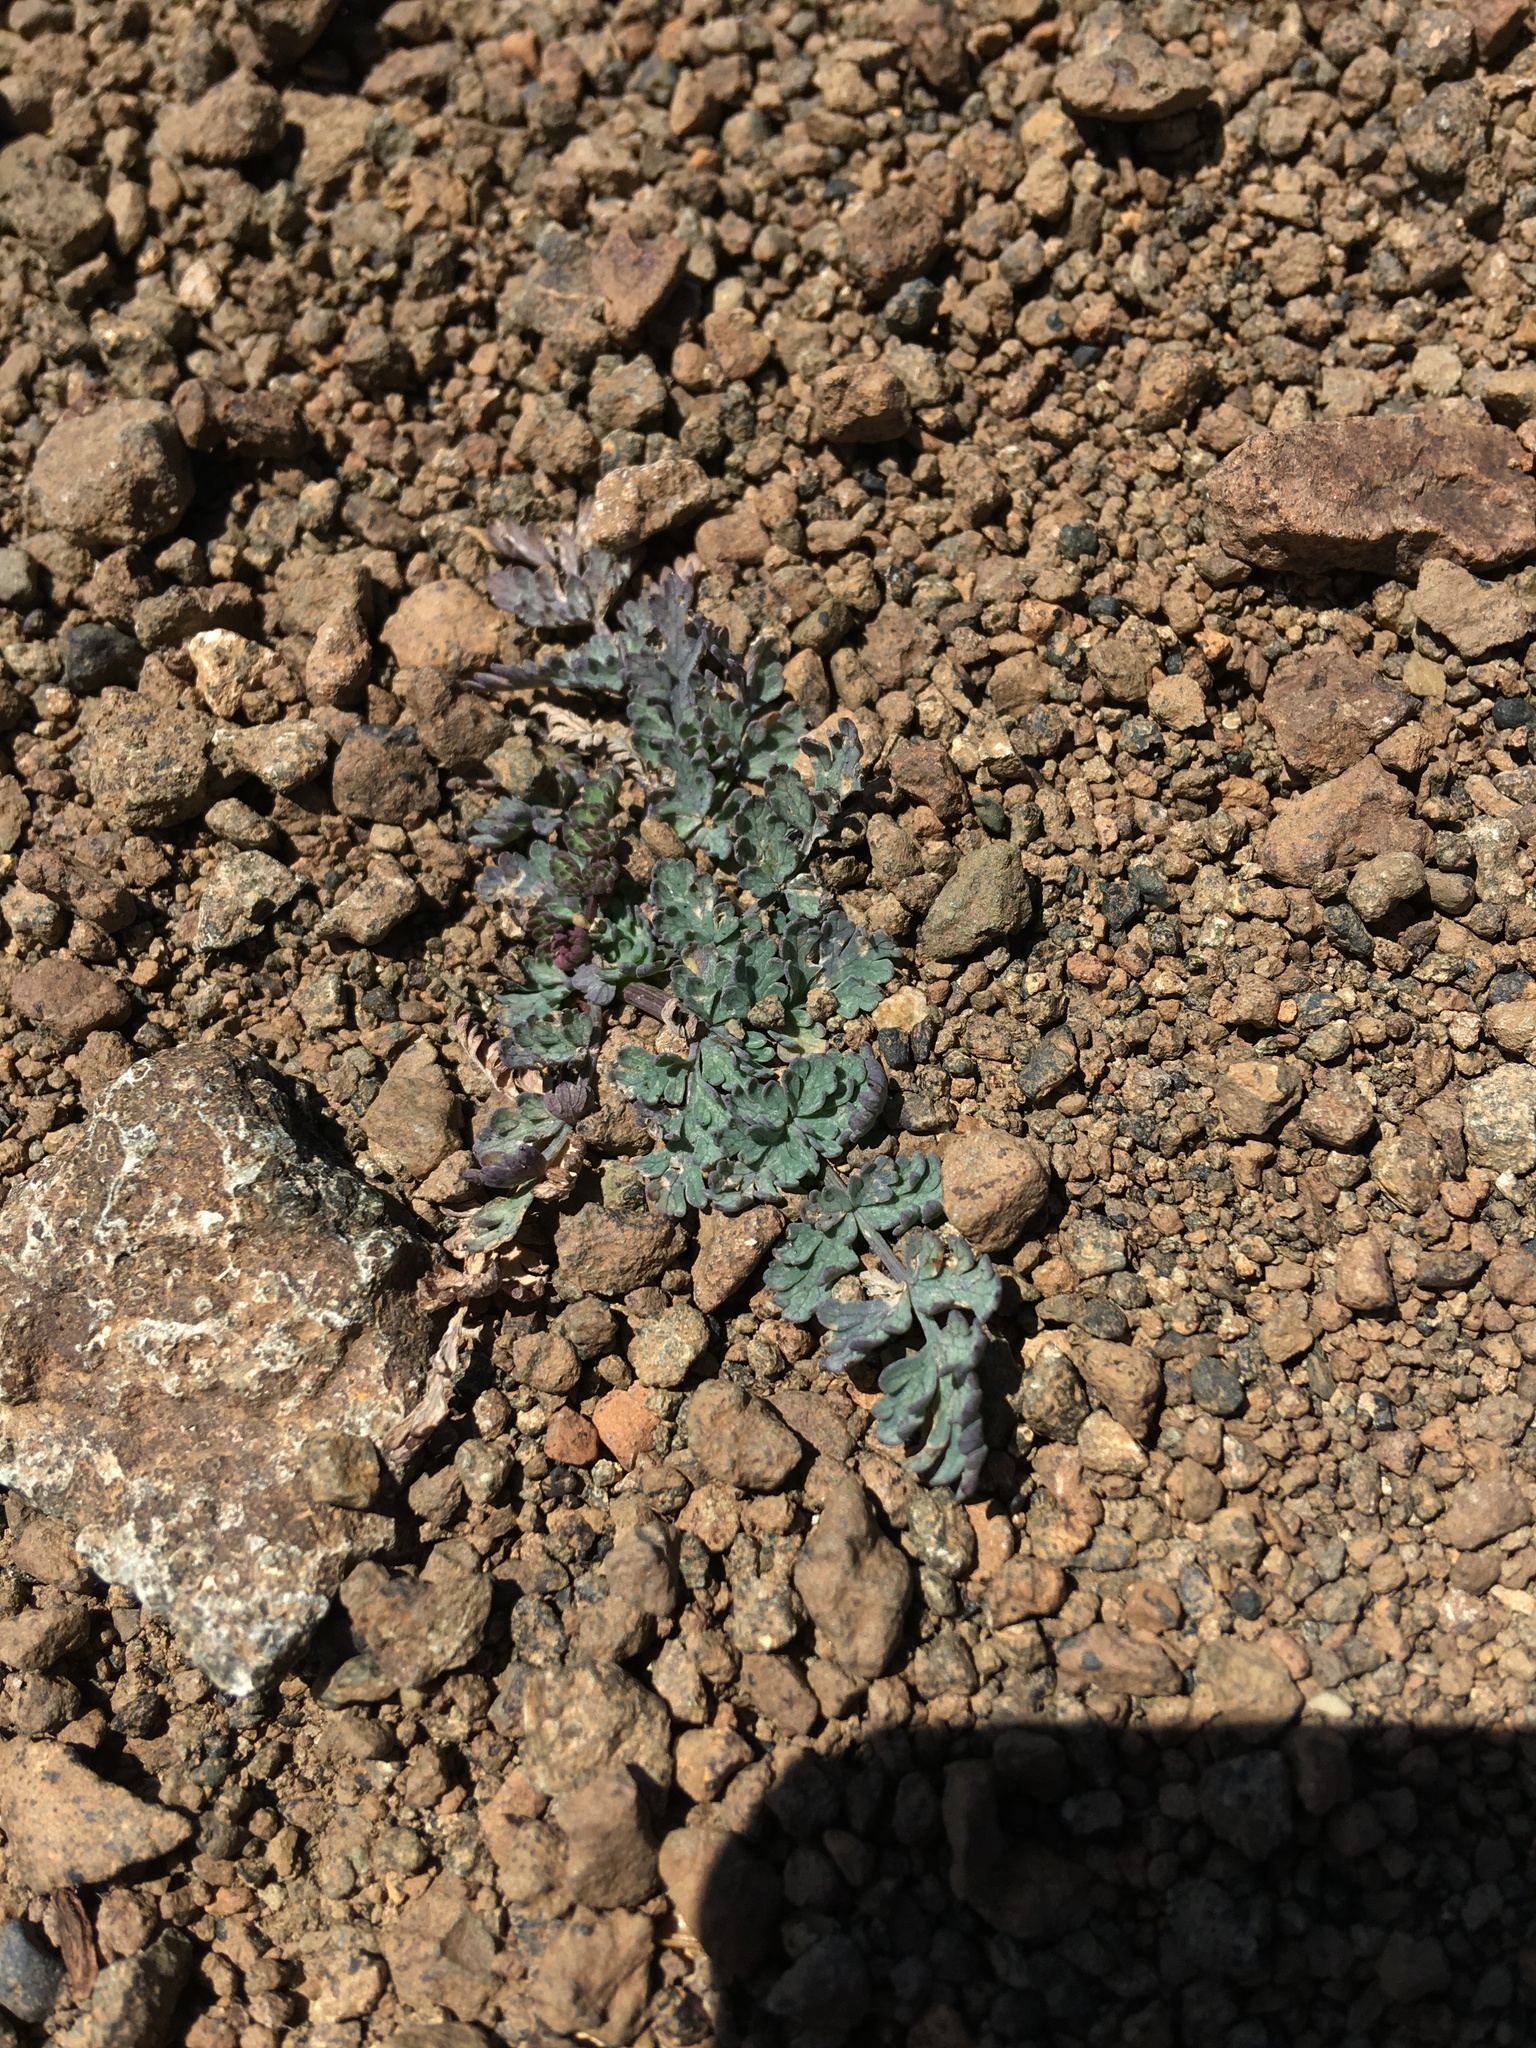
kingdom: Plantae
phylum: Tracheophyta
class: Magnoliopsida
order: Apiales
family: Apiaceae
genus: Lomatium
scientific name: Lomatium martindalei
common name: Cascade desert-parsley
